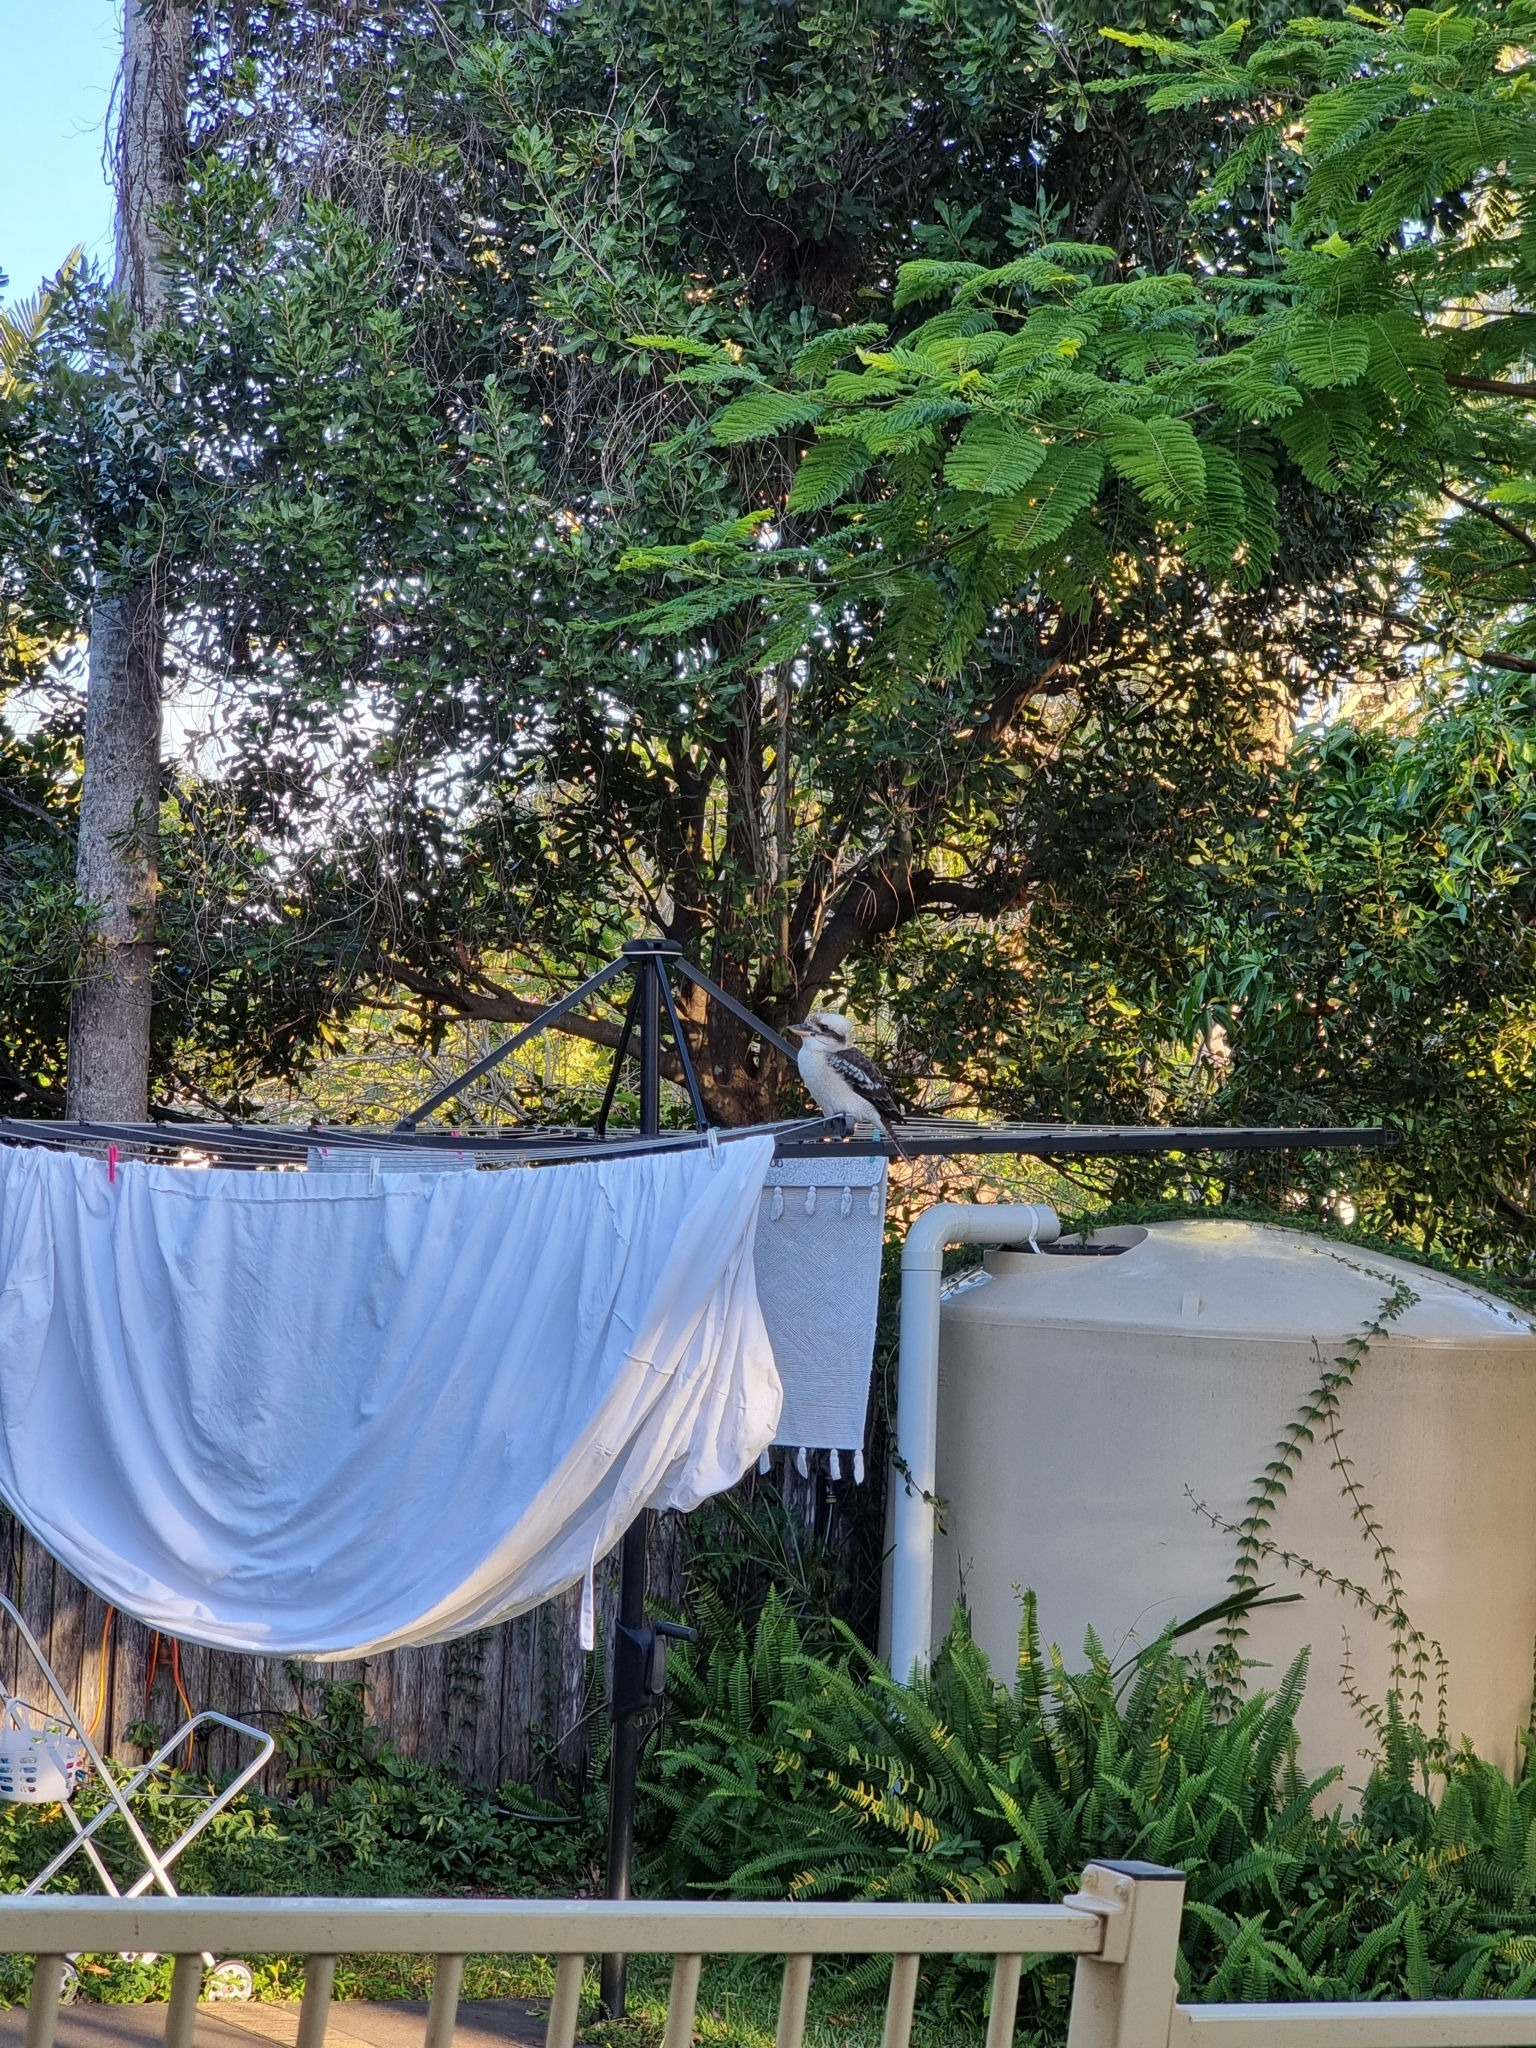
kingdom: Animalia
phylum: Chordata
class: Aves
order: Coraciiformes
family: Alcedinidae
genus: Dacelo
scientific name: Dacelo novaeguineae
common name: Laughing kookaburra
